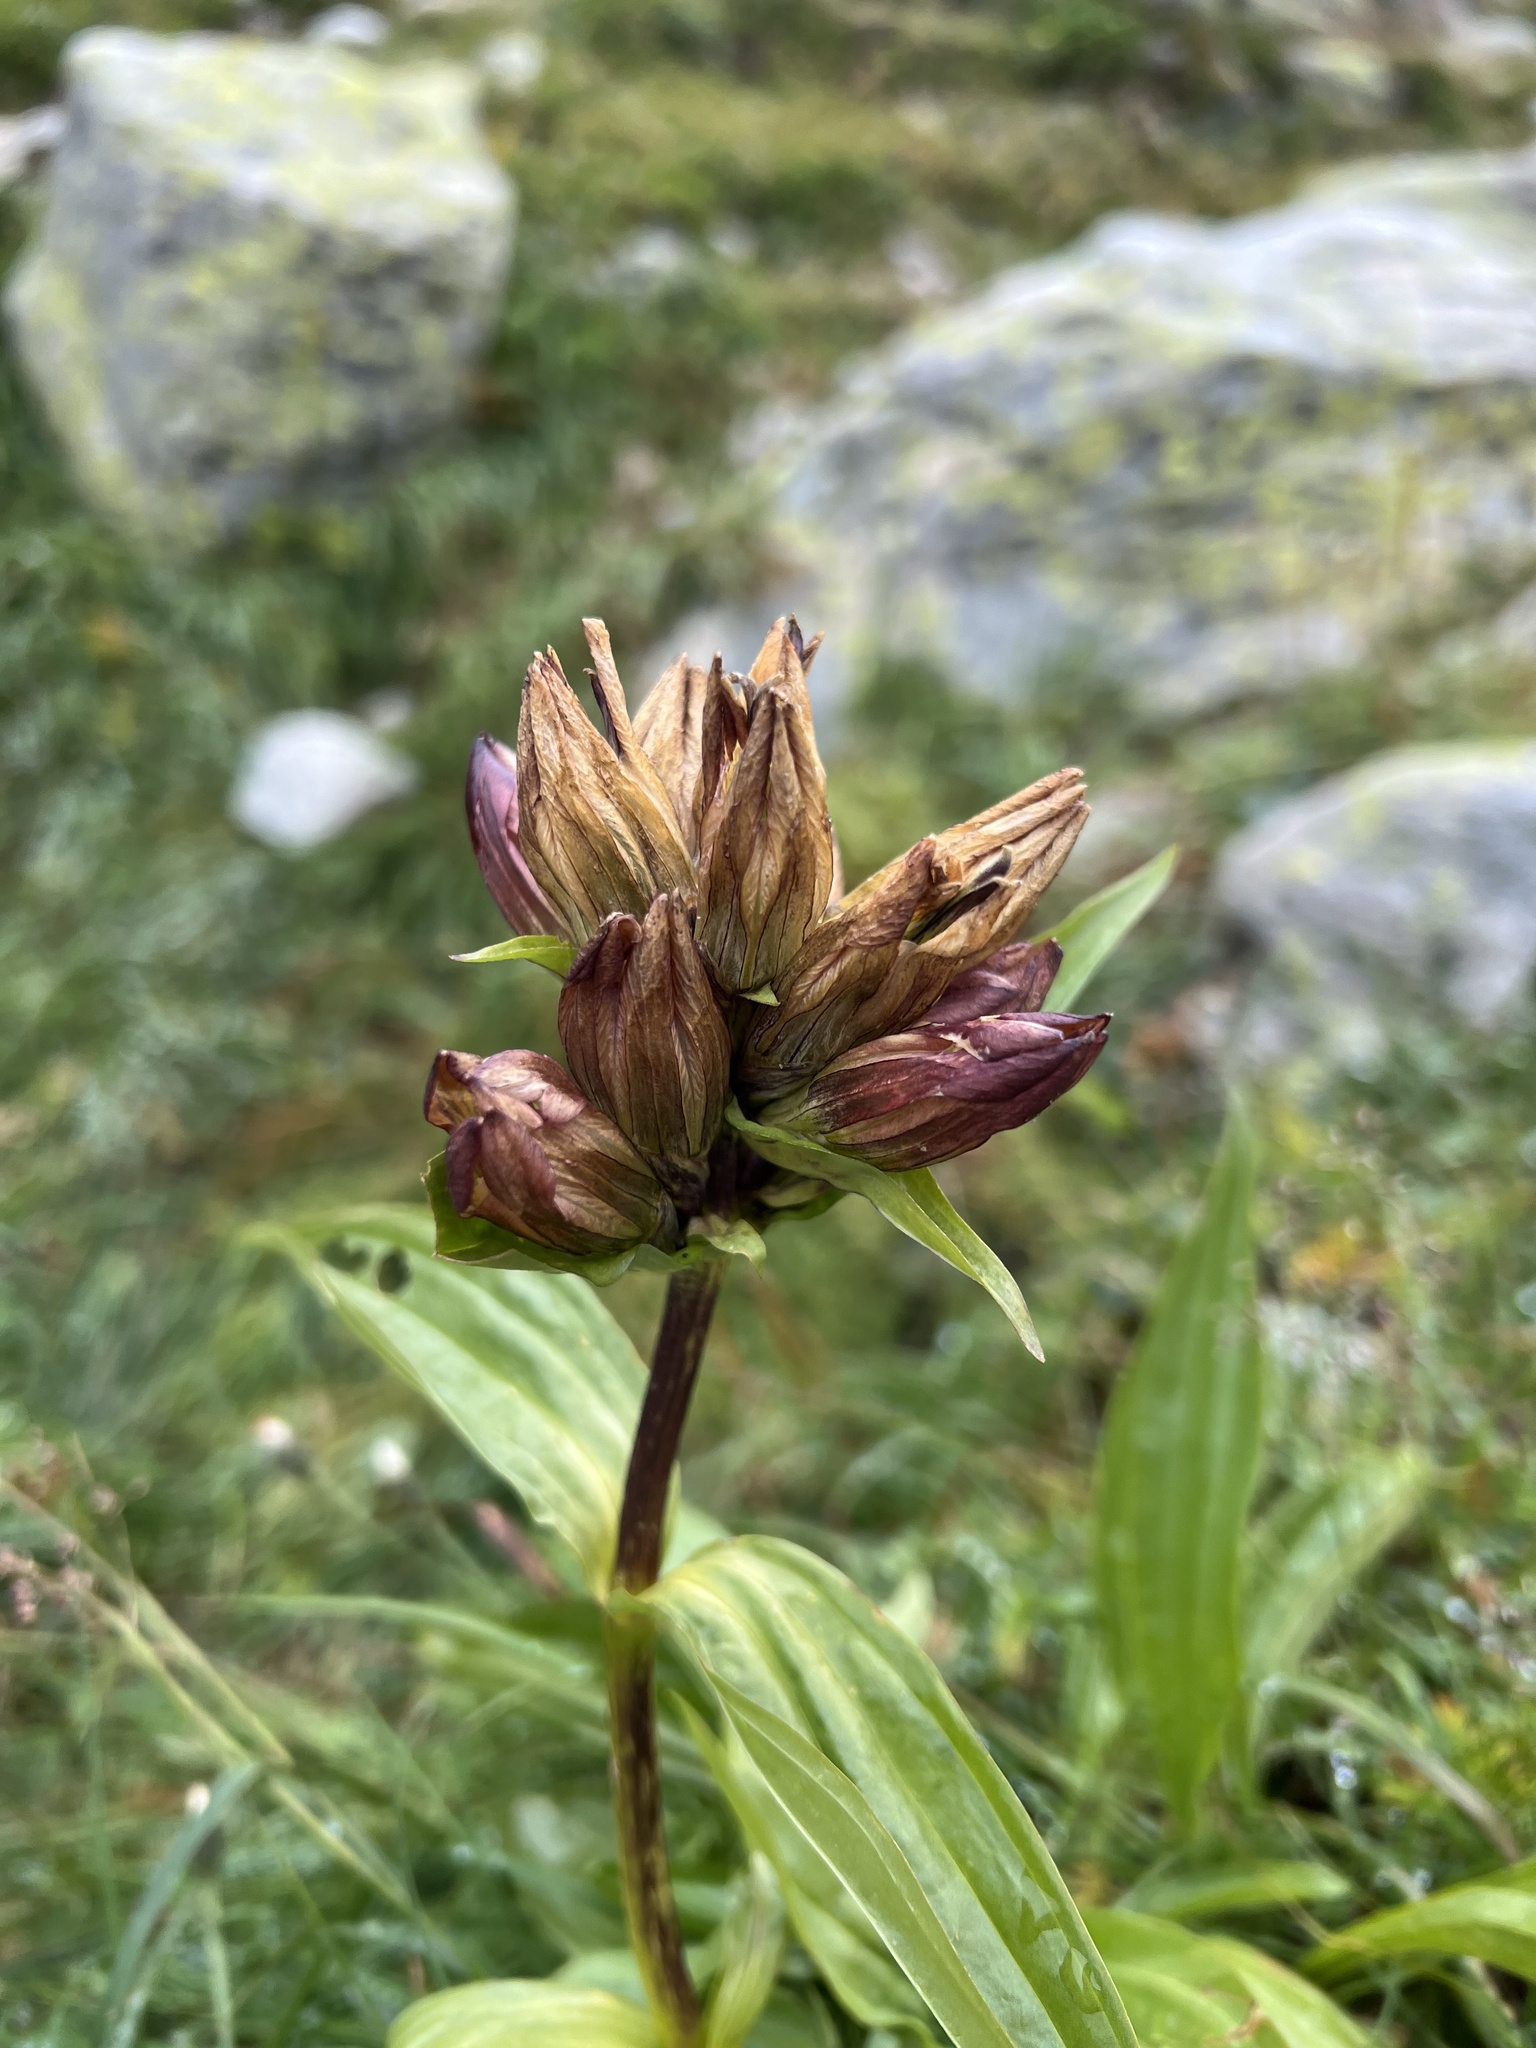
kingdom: Plantae
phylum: Tracheophyta
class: Magnoliopsida
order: Gentianales
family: Gentianaceae
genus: Gentiana
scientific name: Gentiana purpurea
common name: Purple gentian
